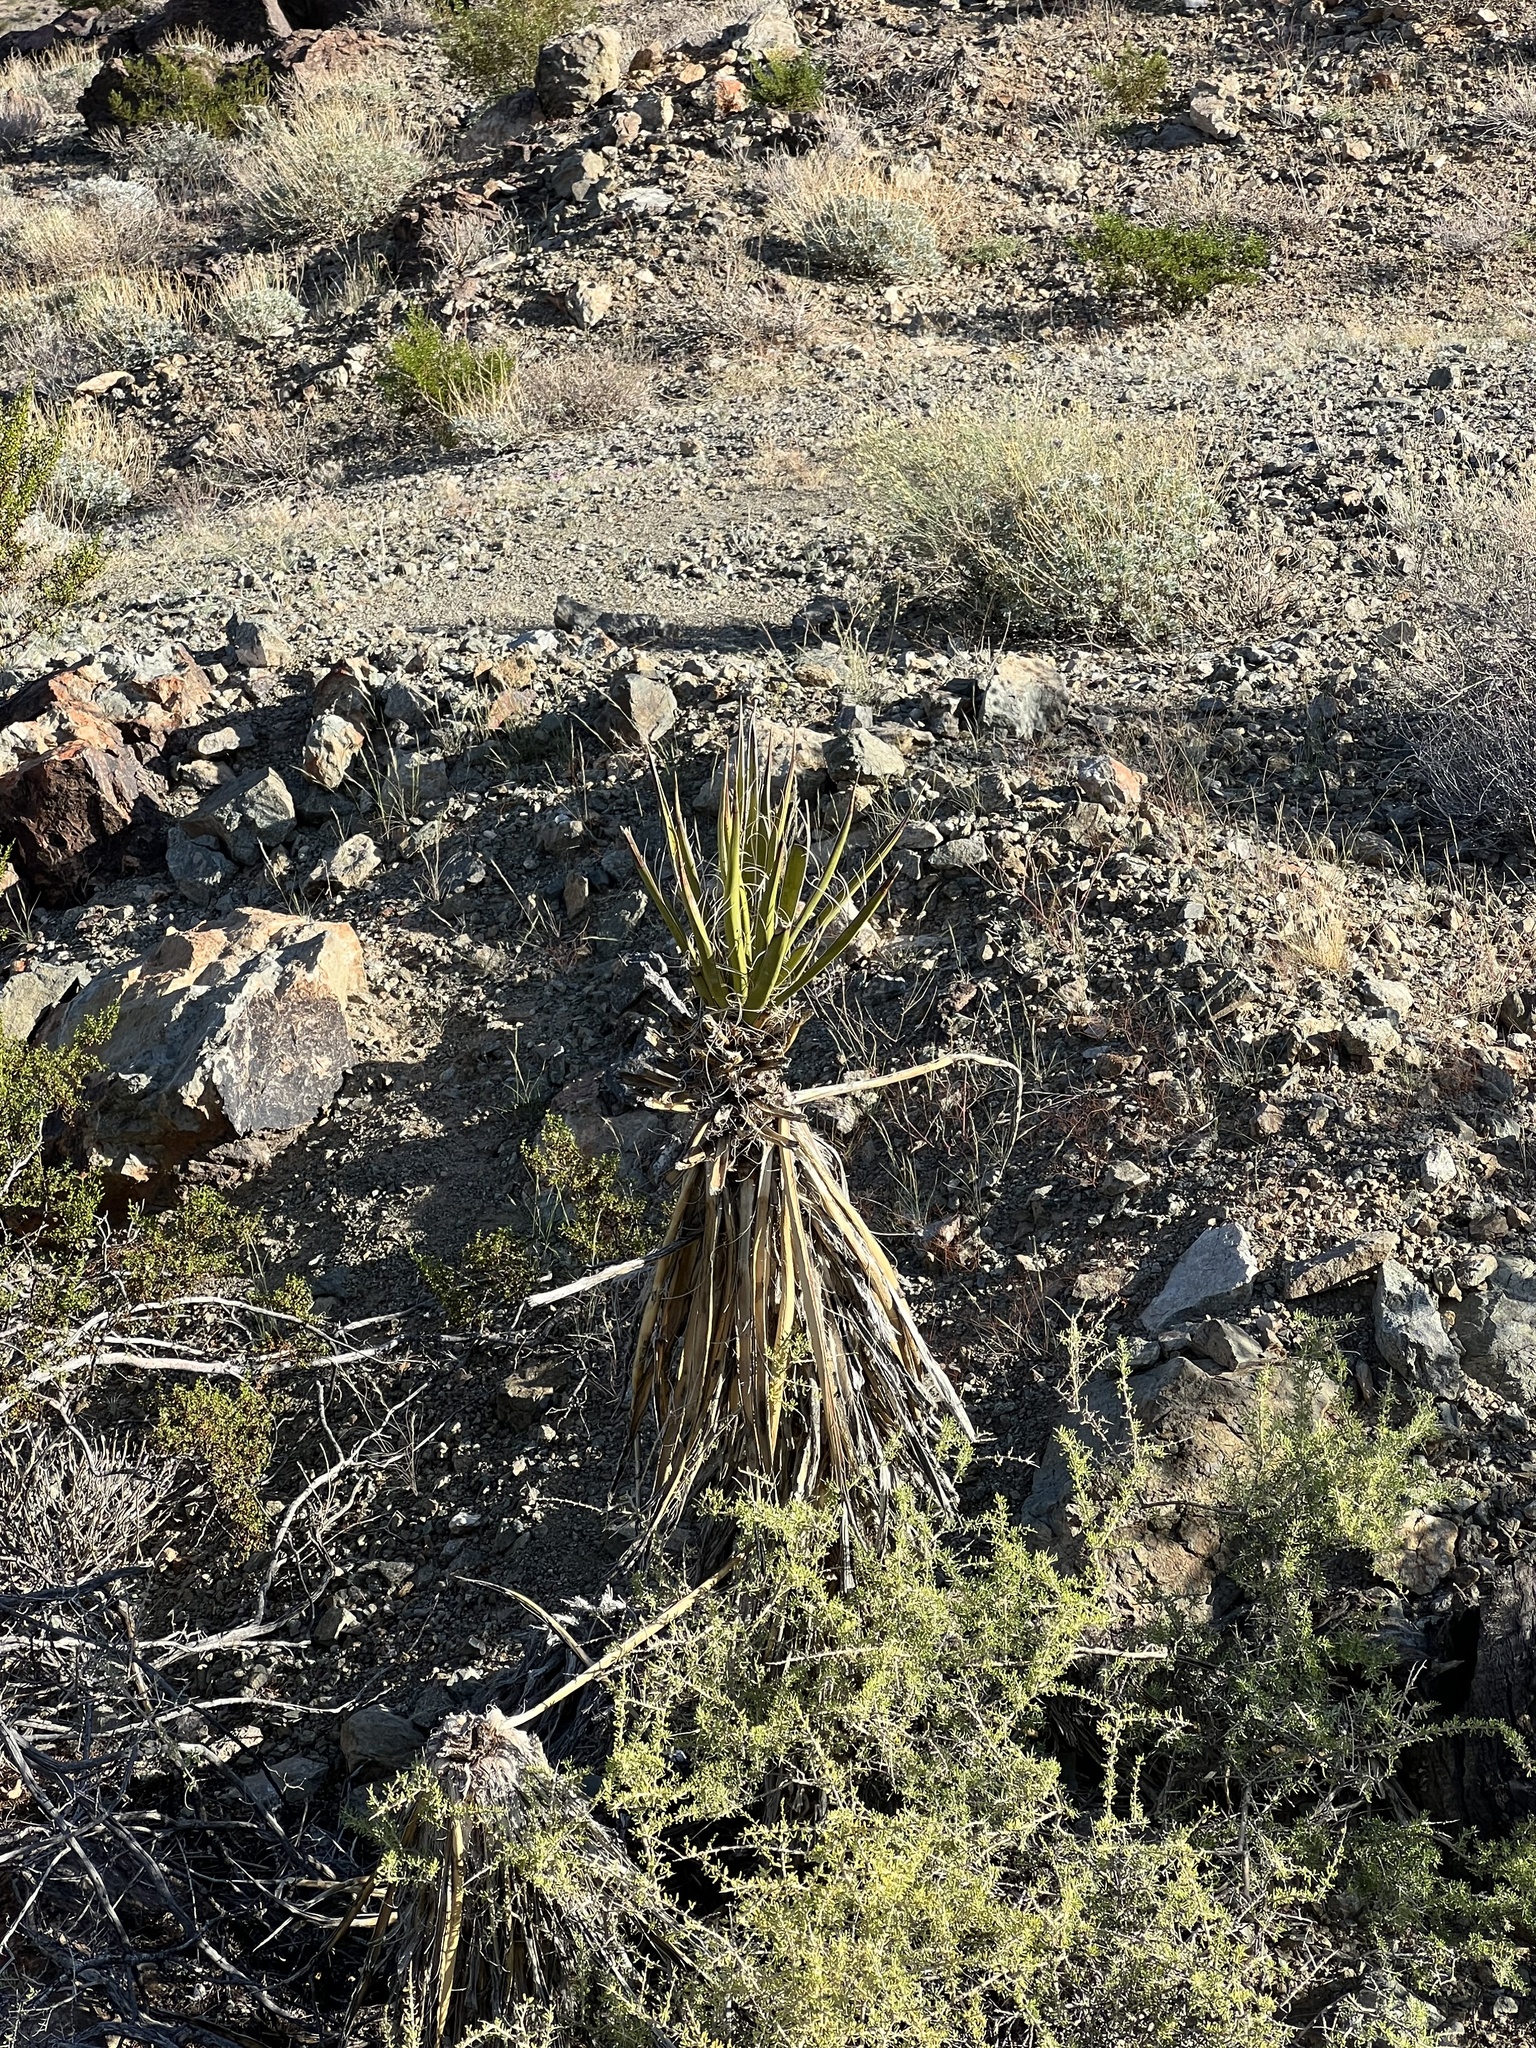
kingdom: Plantae
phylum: Tracheophyta
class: Liliopsida
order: Asparagales
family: Asparagaceae
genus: Yucca
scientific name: Yucca schidigera
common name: Mojave yucca
